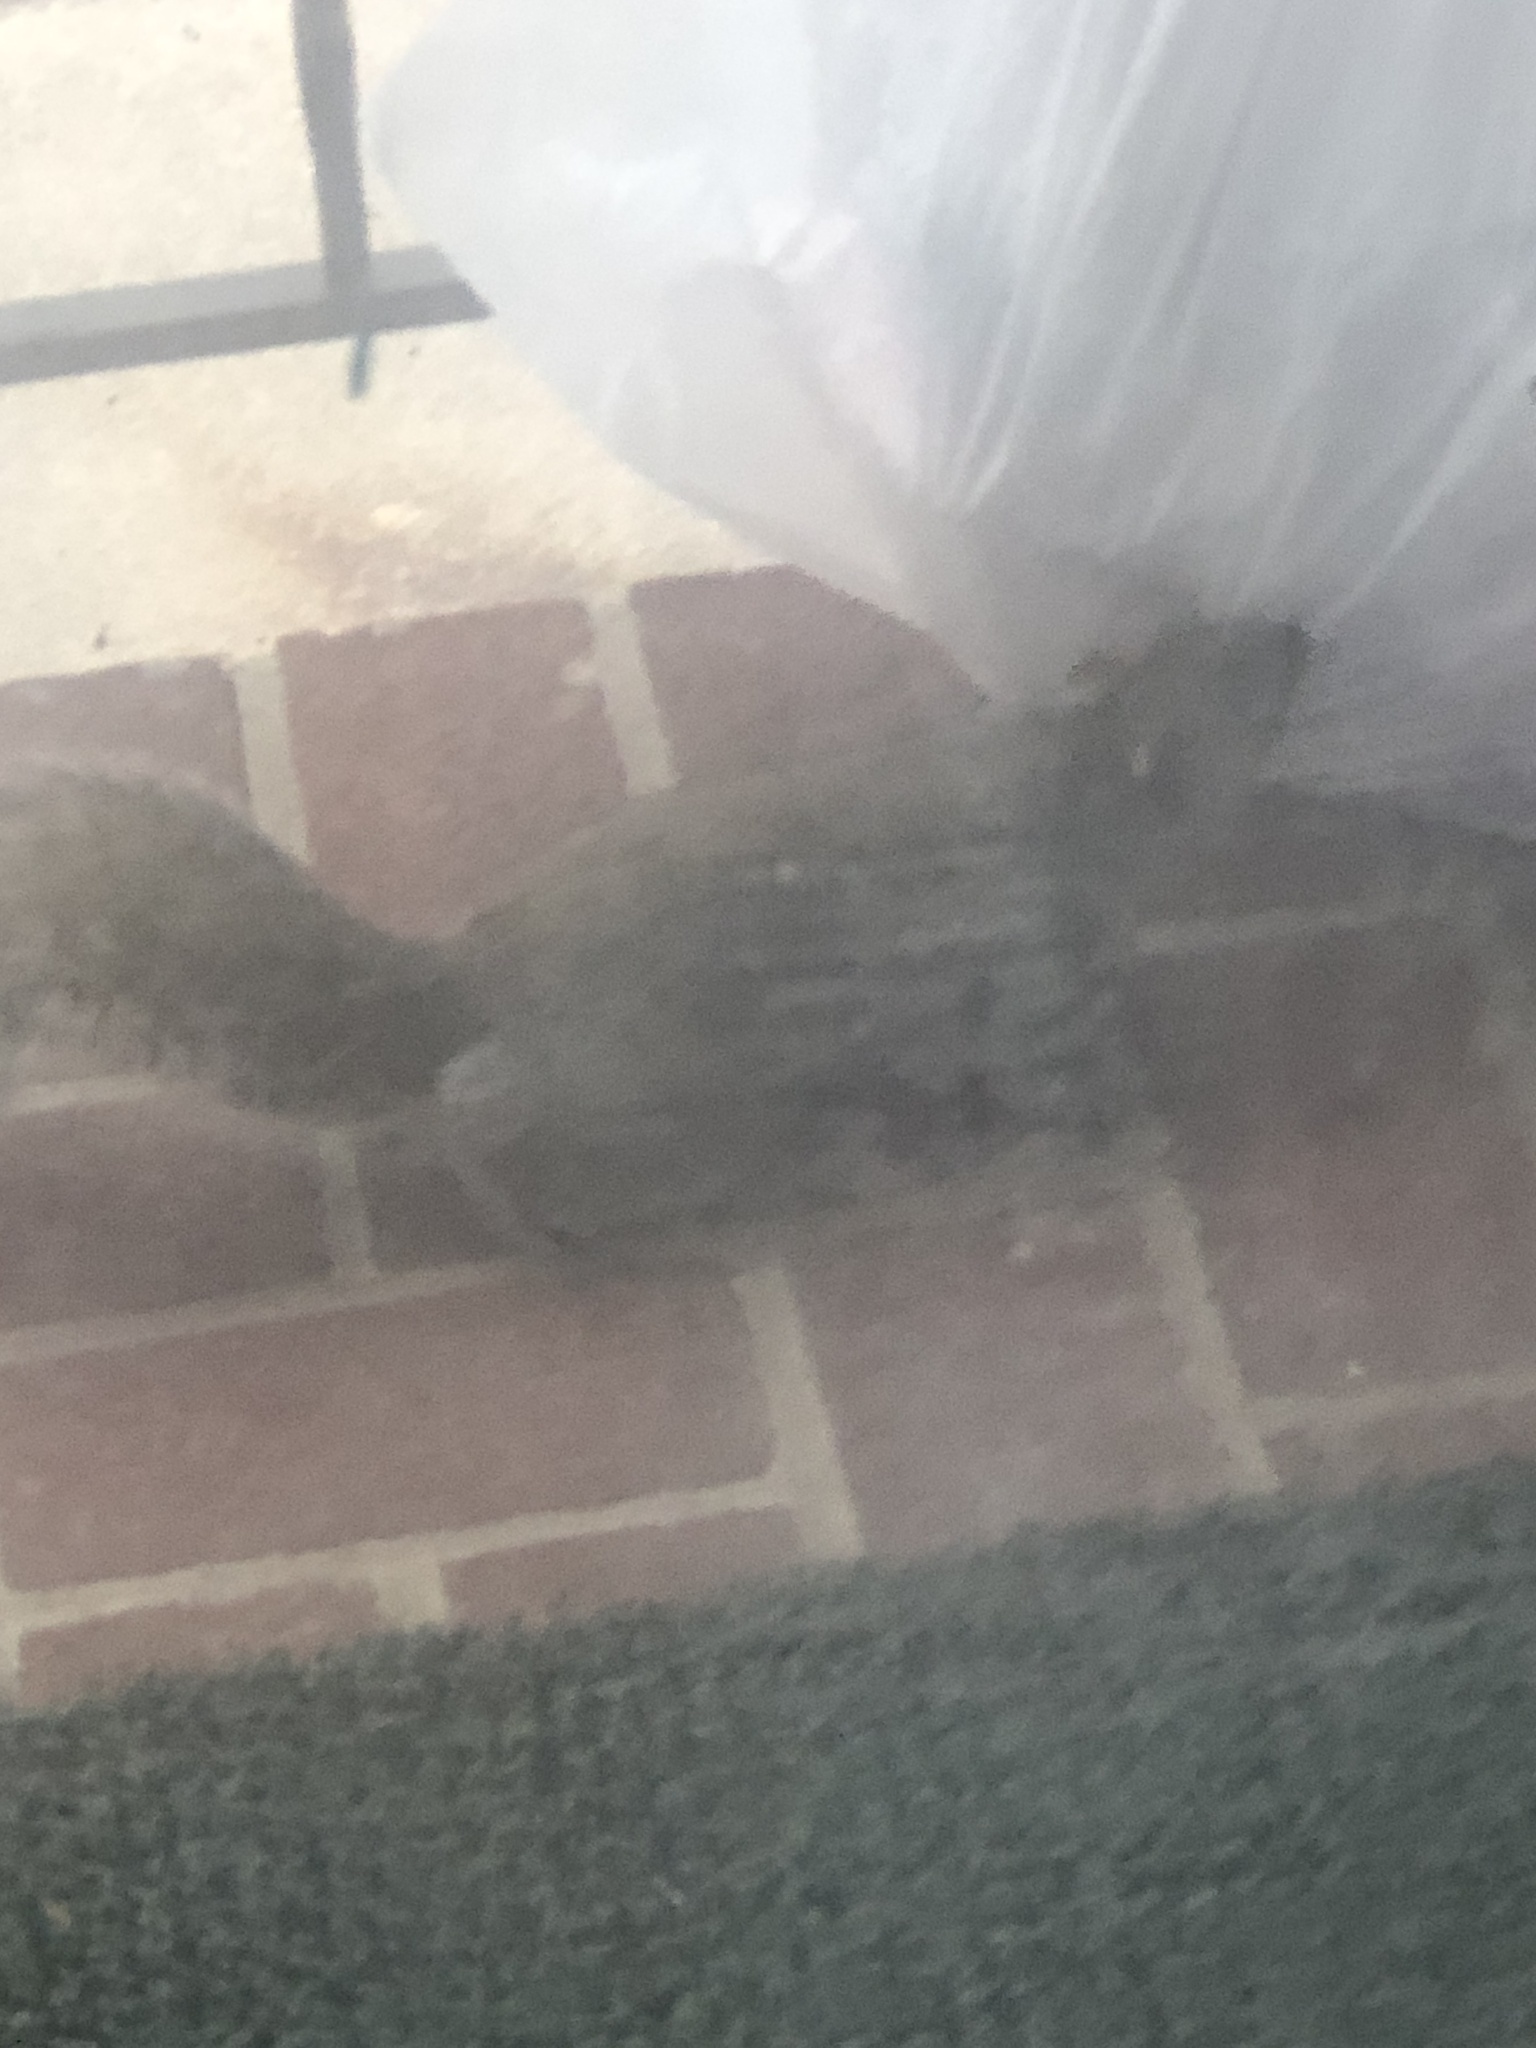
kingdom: Animalia
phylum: Chordata
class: Mammalia
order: Rodentia
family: Sciuridae
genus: Sciurus
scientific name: Sciurus carolinensis
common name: Eastern gray squirrel
